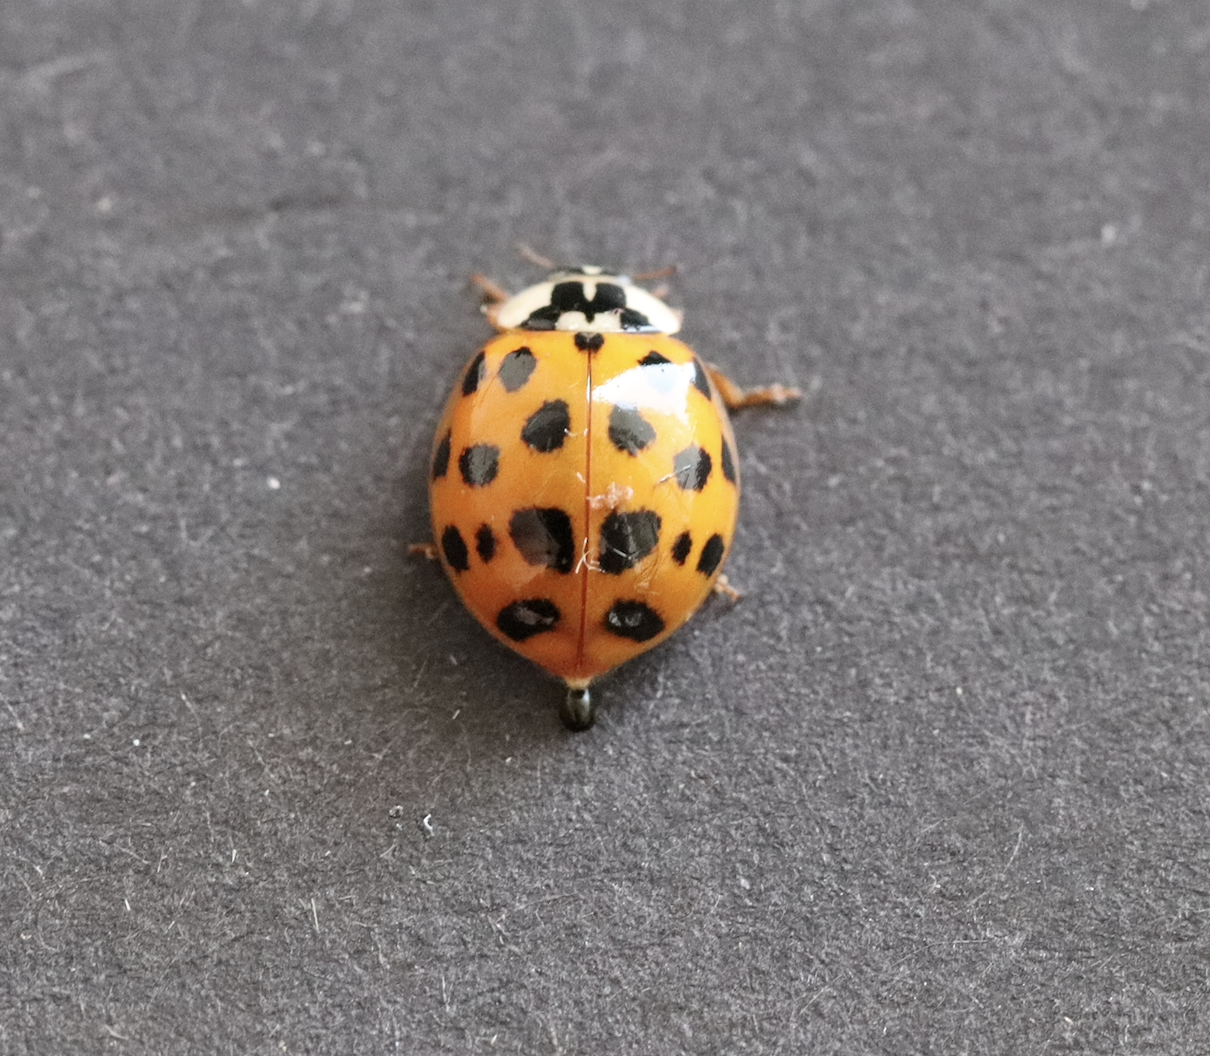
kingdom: Animalia
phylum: Arthropoda
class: Insecta
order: Coleoptera
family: Coccinellidae
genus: Harmonia
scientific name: Harmonia axyridis
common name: Harlequin ladybird
